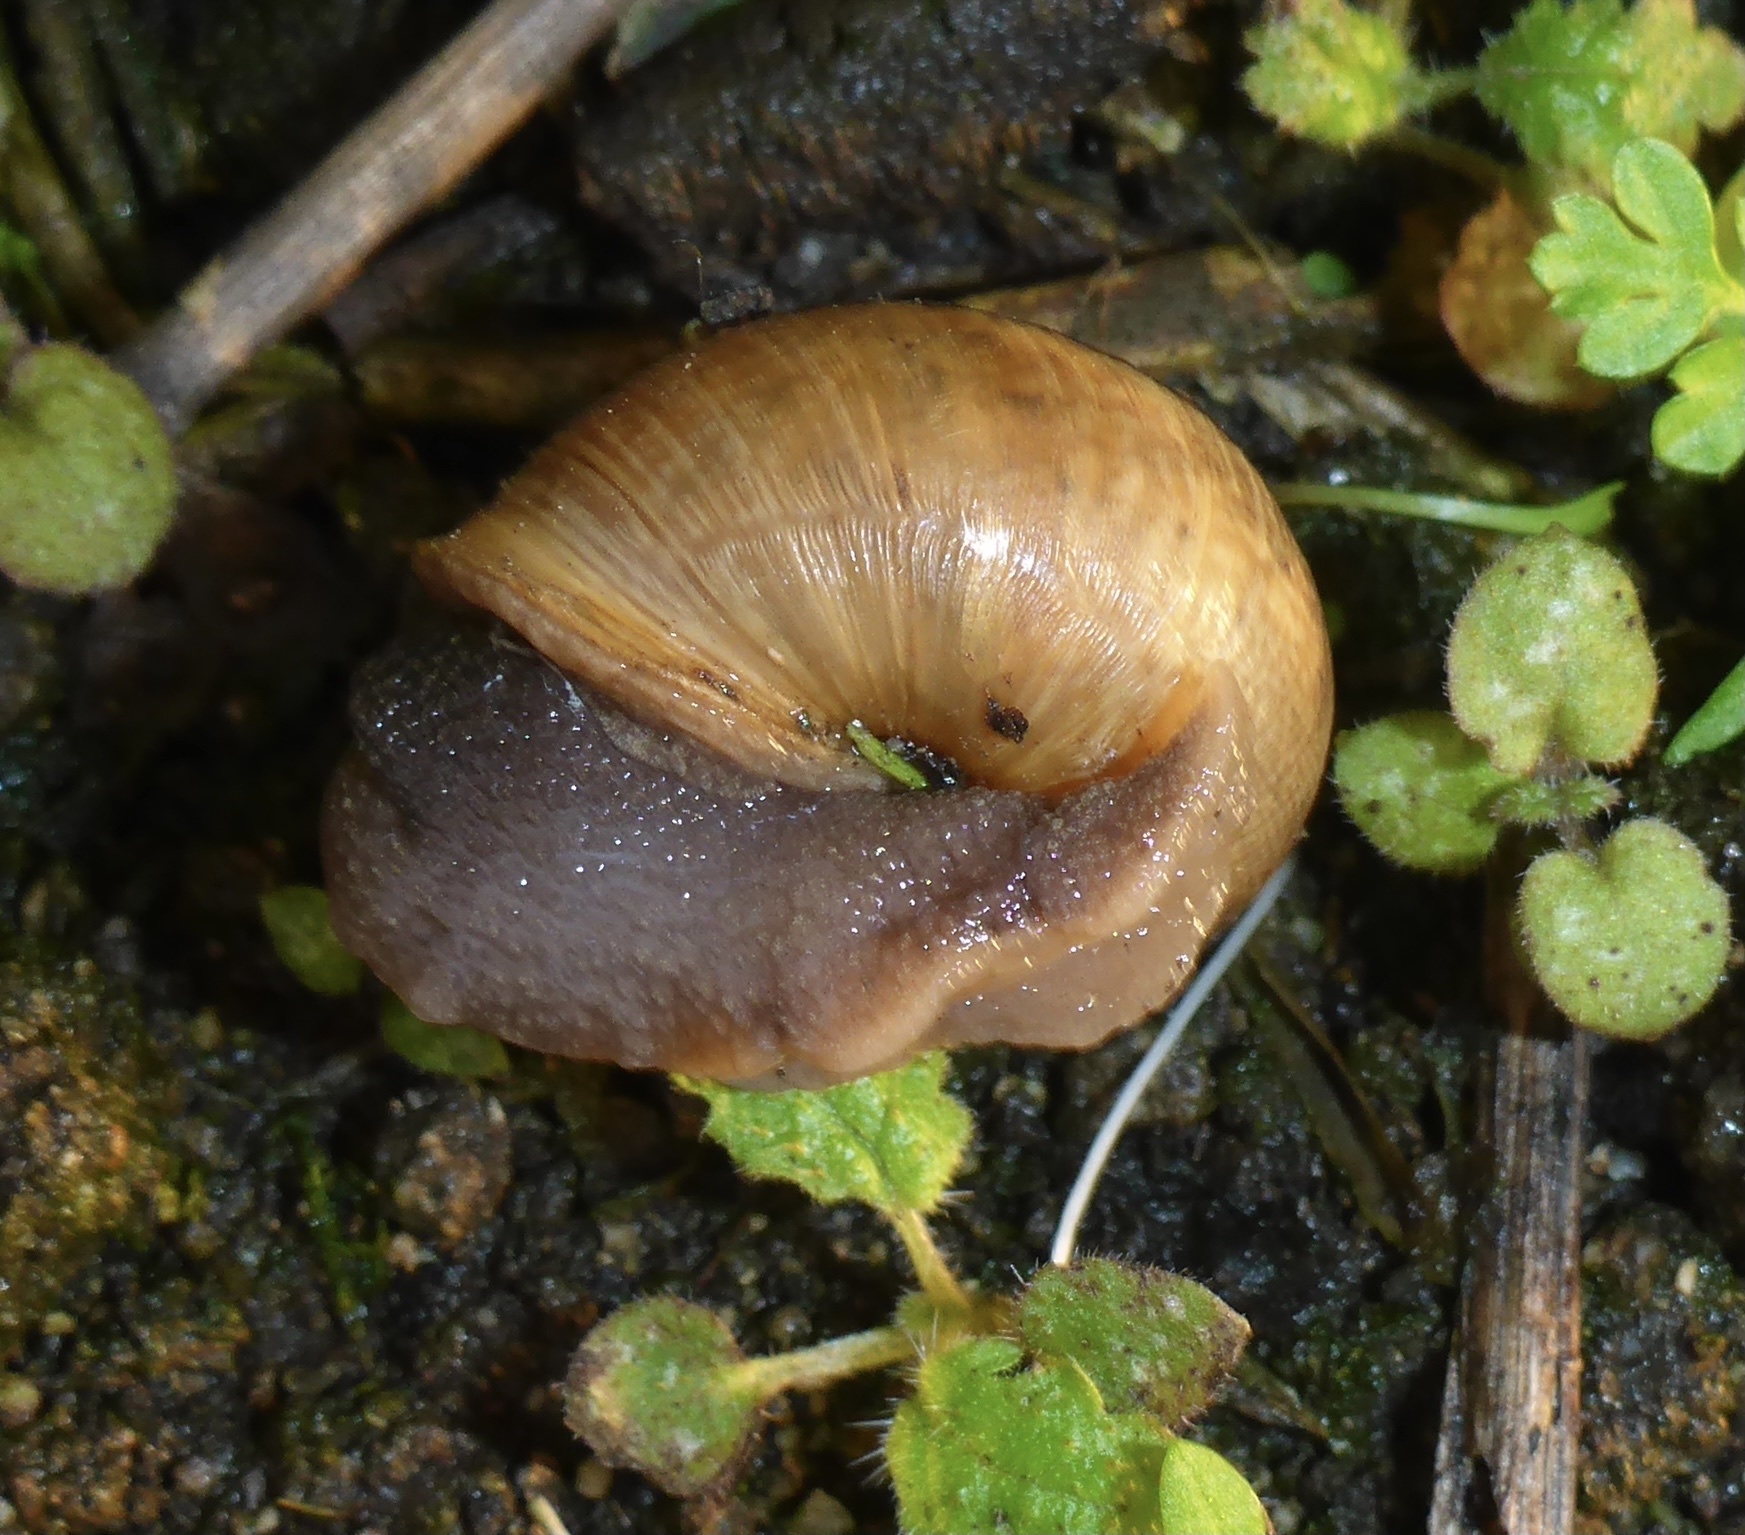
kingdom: Animalia
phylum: Mollusca
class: Gastropoda
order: Stylommatophora
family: Xanthonychidae
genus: Helminthoglypta
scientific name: Helminthoglypta nickliniana
